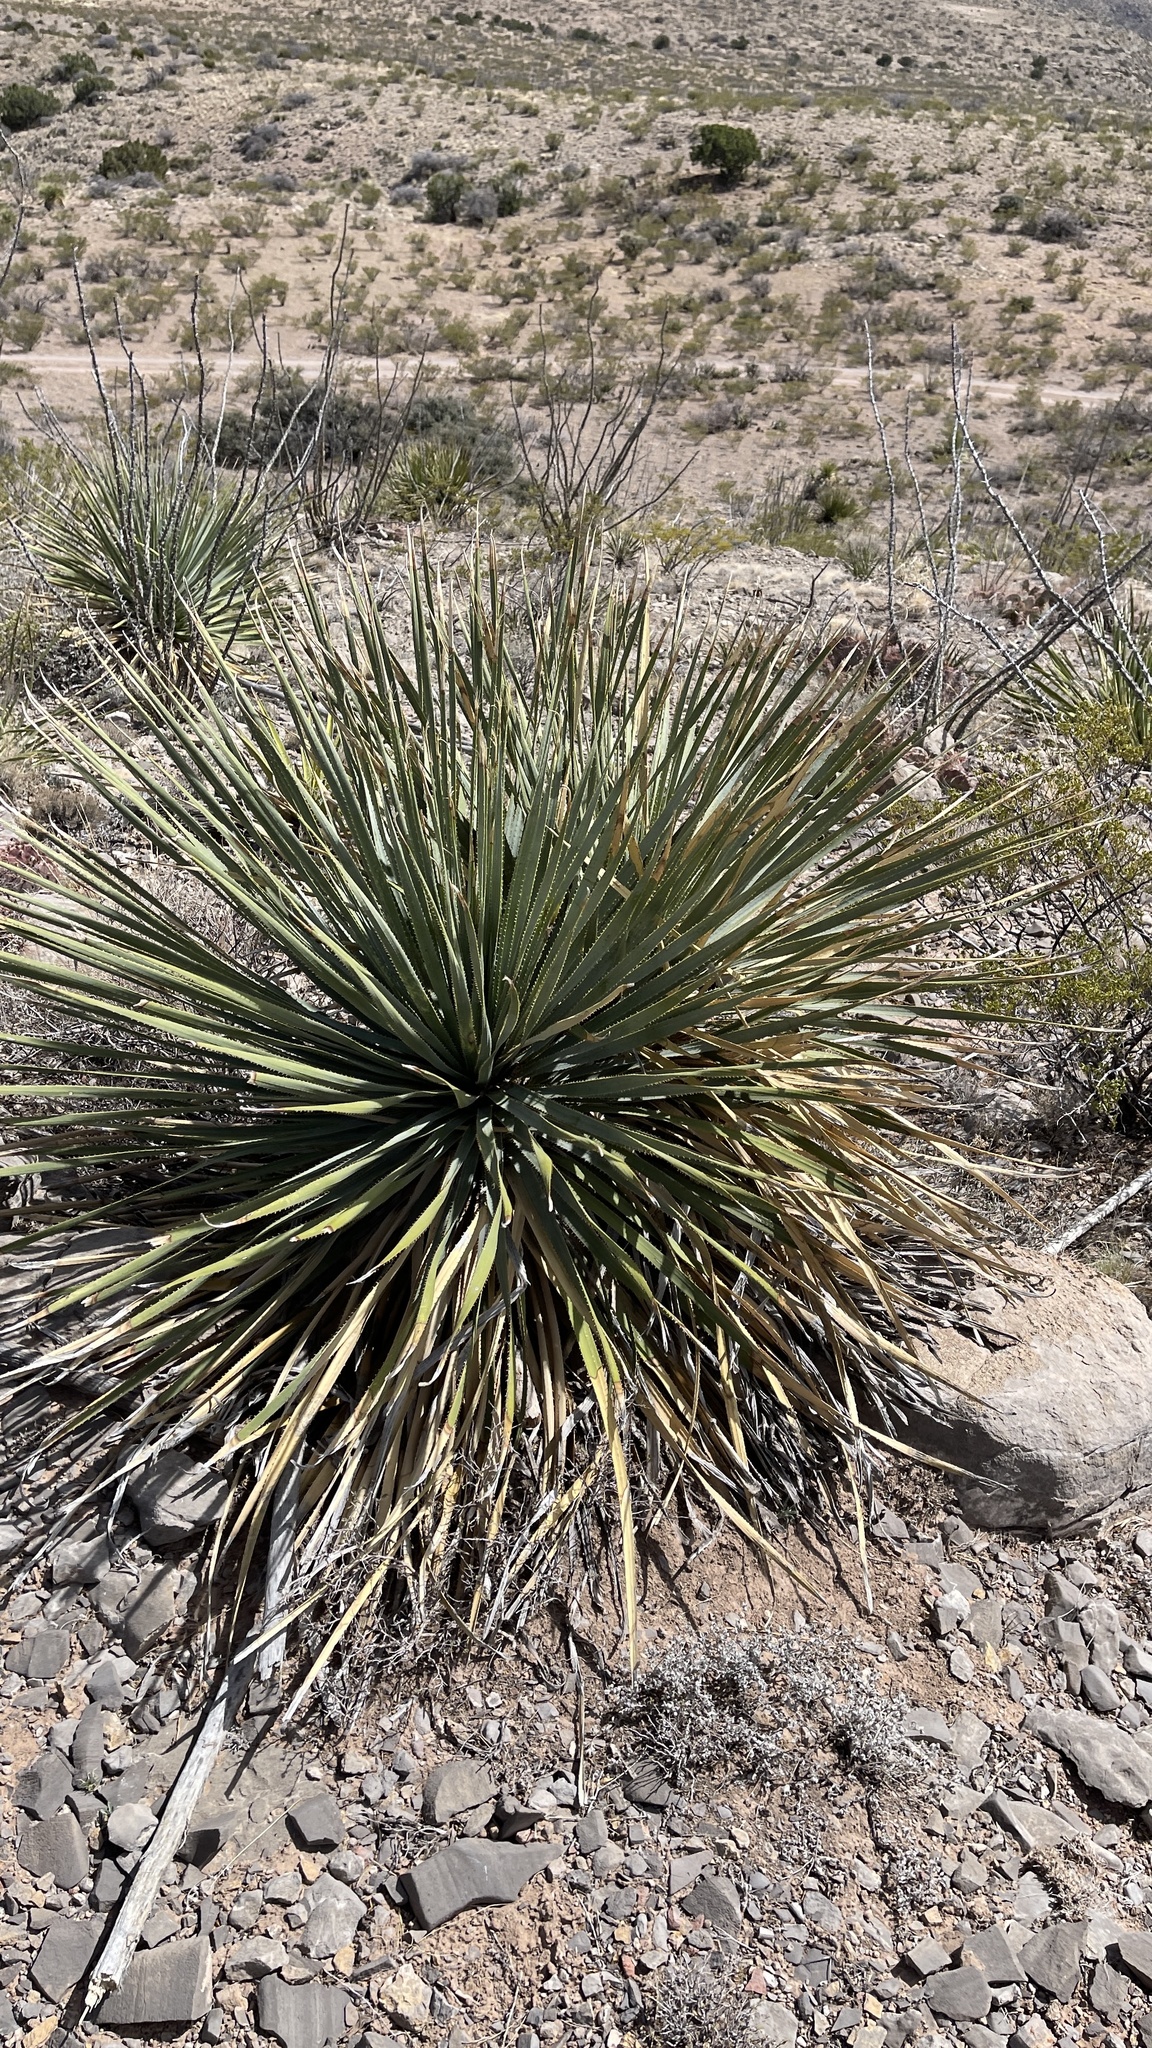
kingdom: Plantae
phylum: Tracheophyta
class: Liliopsida
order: Asparagales
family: Asparagaceae
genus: Dasylirion
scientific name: Dasylirion wheeleri
